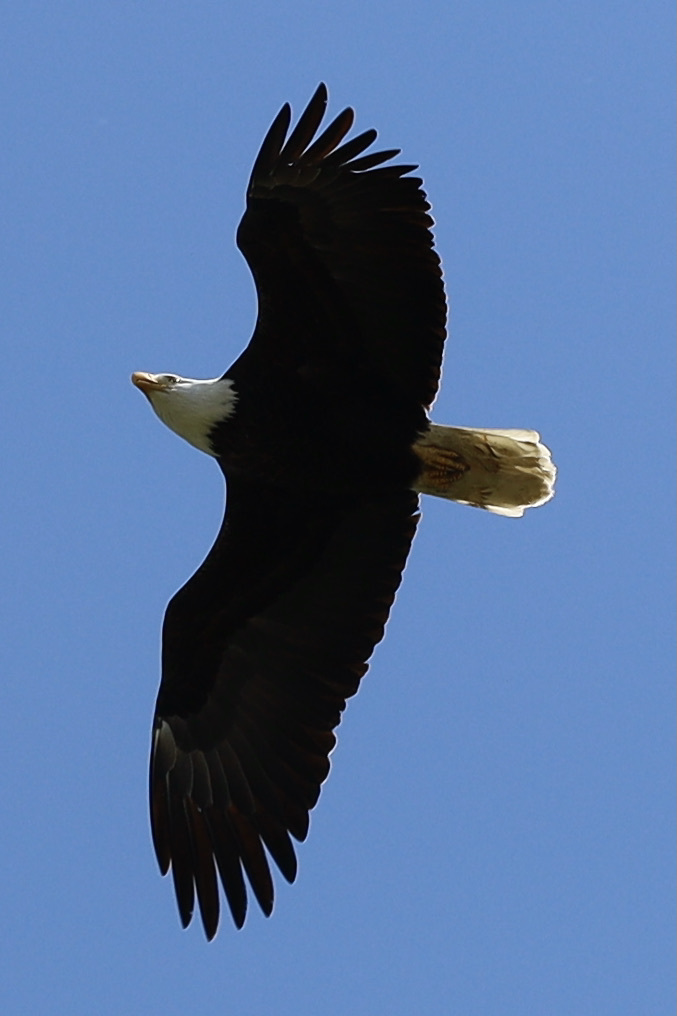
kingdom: Animalia
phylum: Chordata
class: Aves
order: Accipitriformes
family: Accipitridae
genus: Haliaeetus
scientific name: Haliaeetus leucocephalus
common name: Bald eagle
